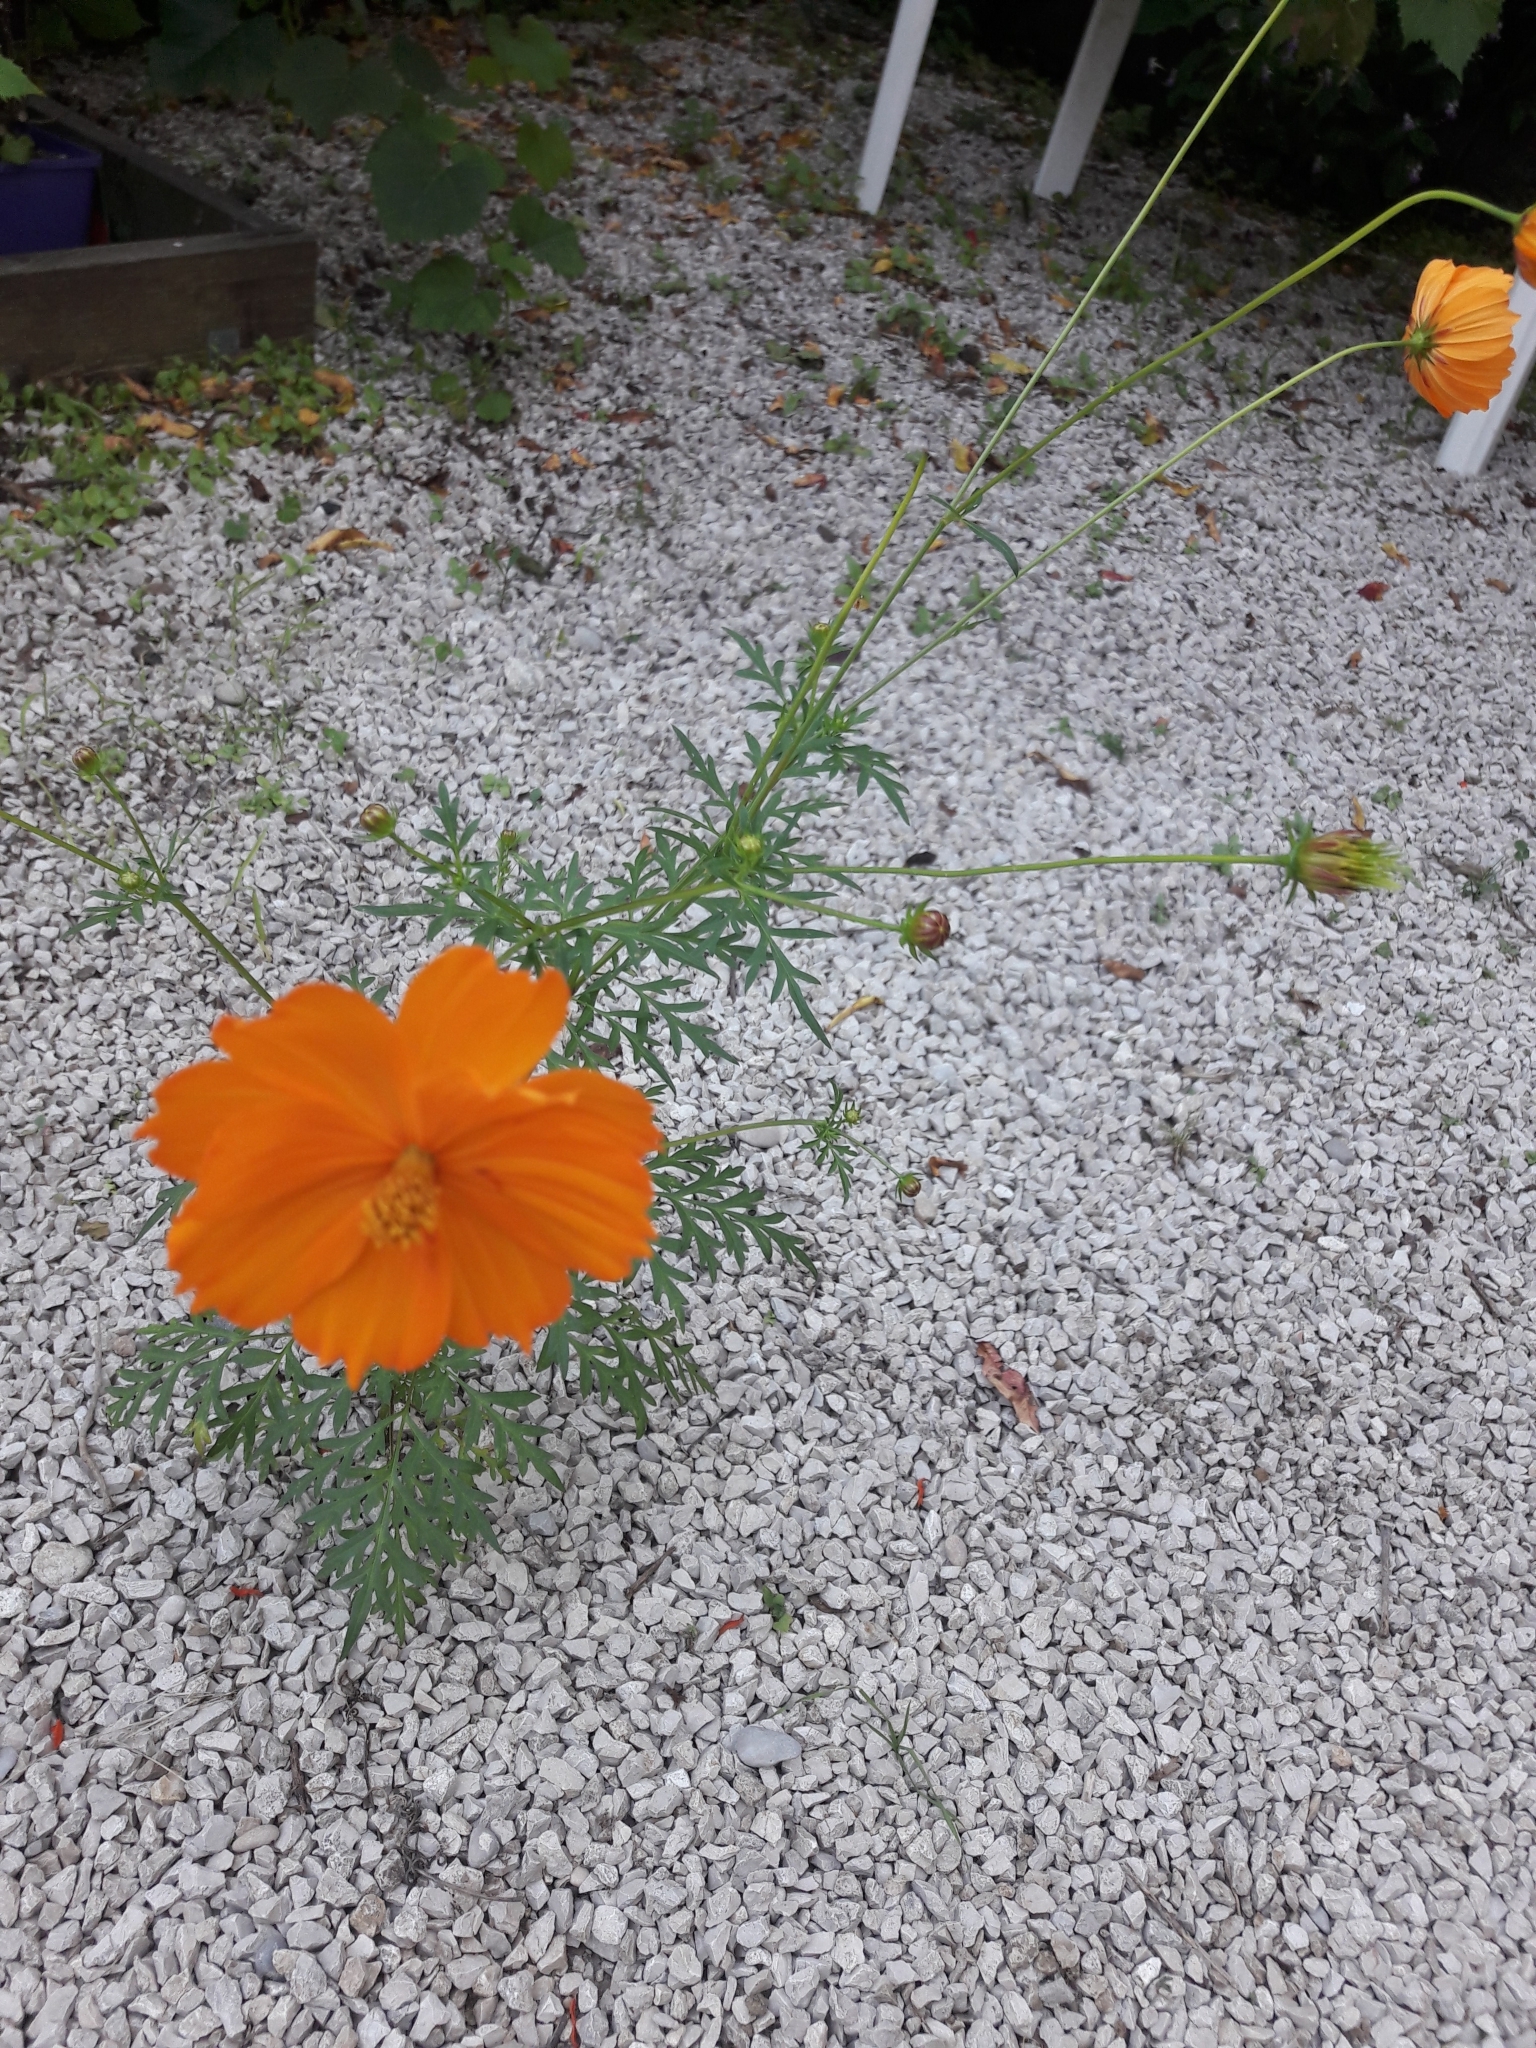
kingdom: Plantae
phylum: Tracheophyta
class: Magnoliopsida
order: Asterales
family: Asteraceae
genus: Cosmos
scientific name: Cosmos sulphureus
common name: Sulphur cosmos
